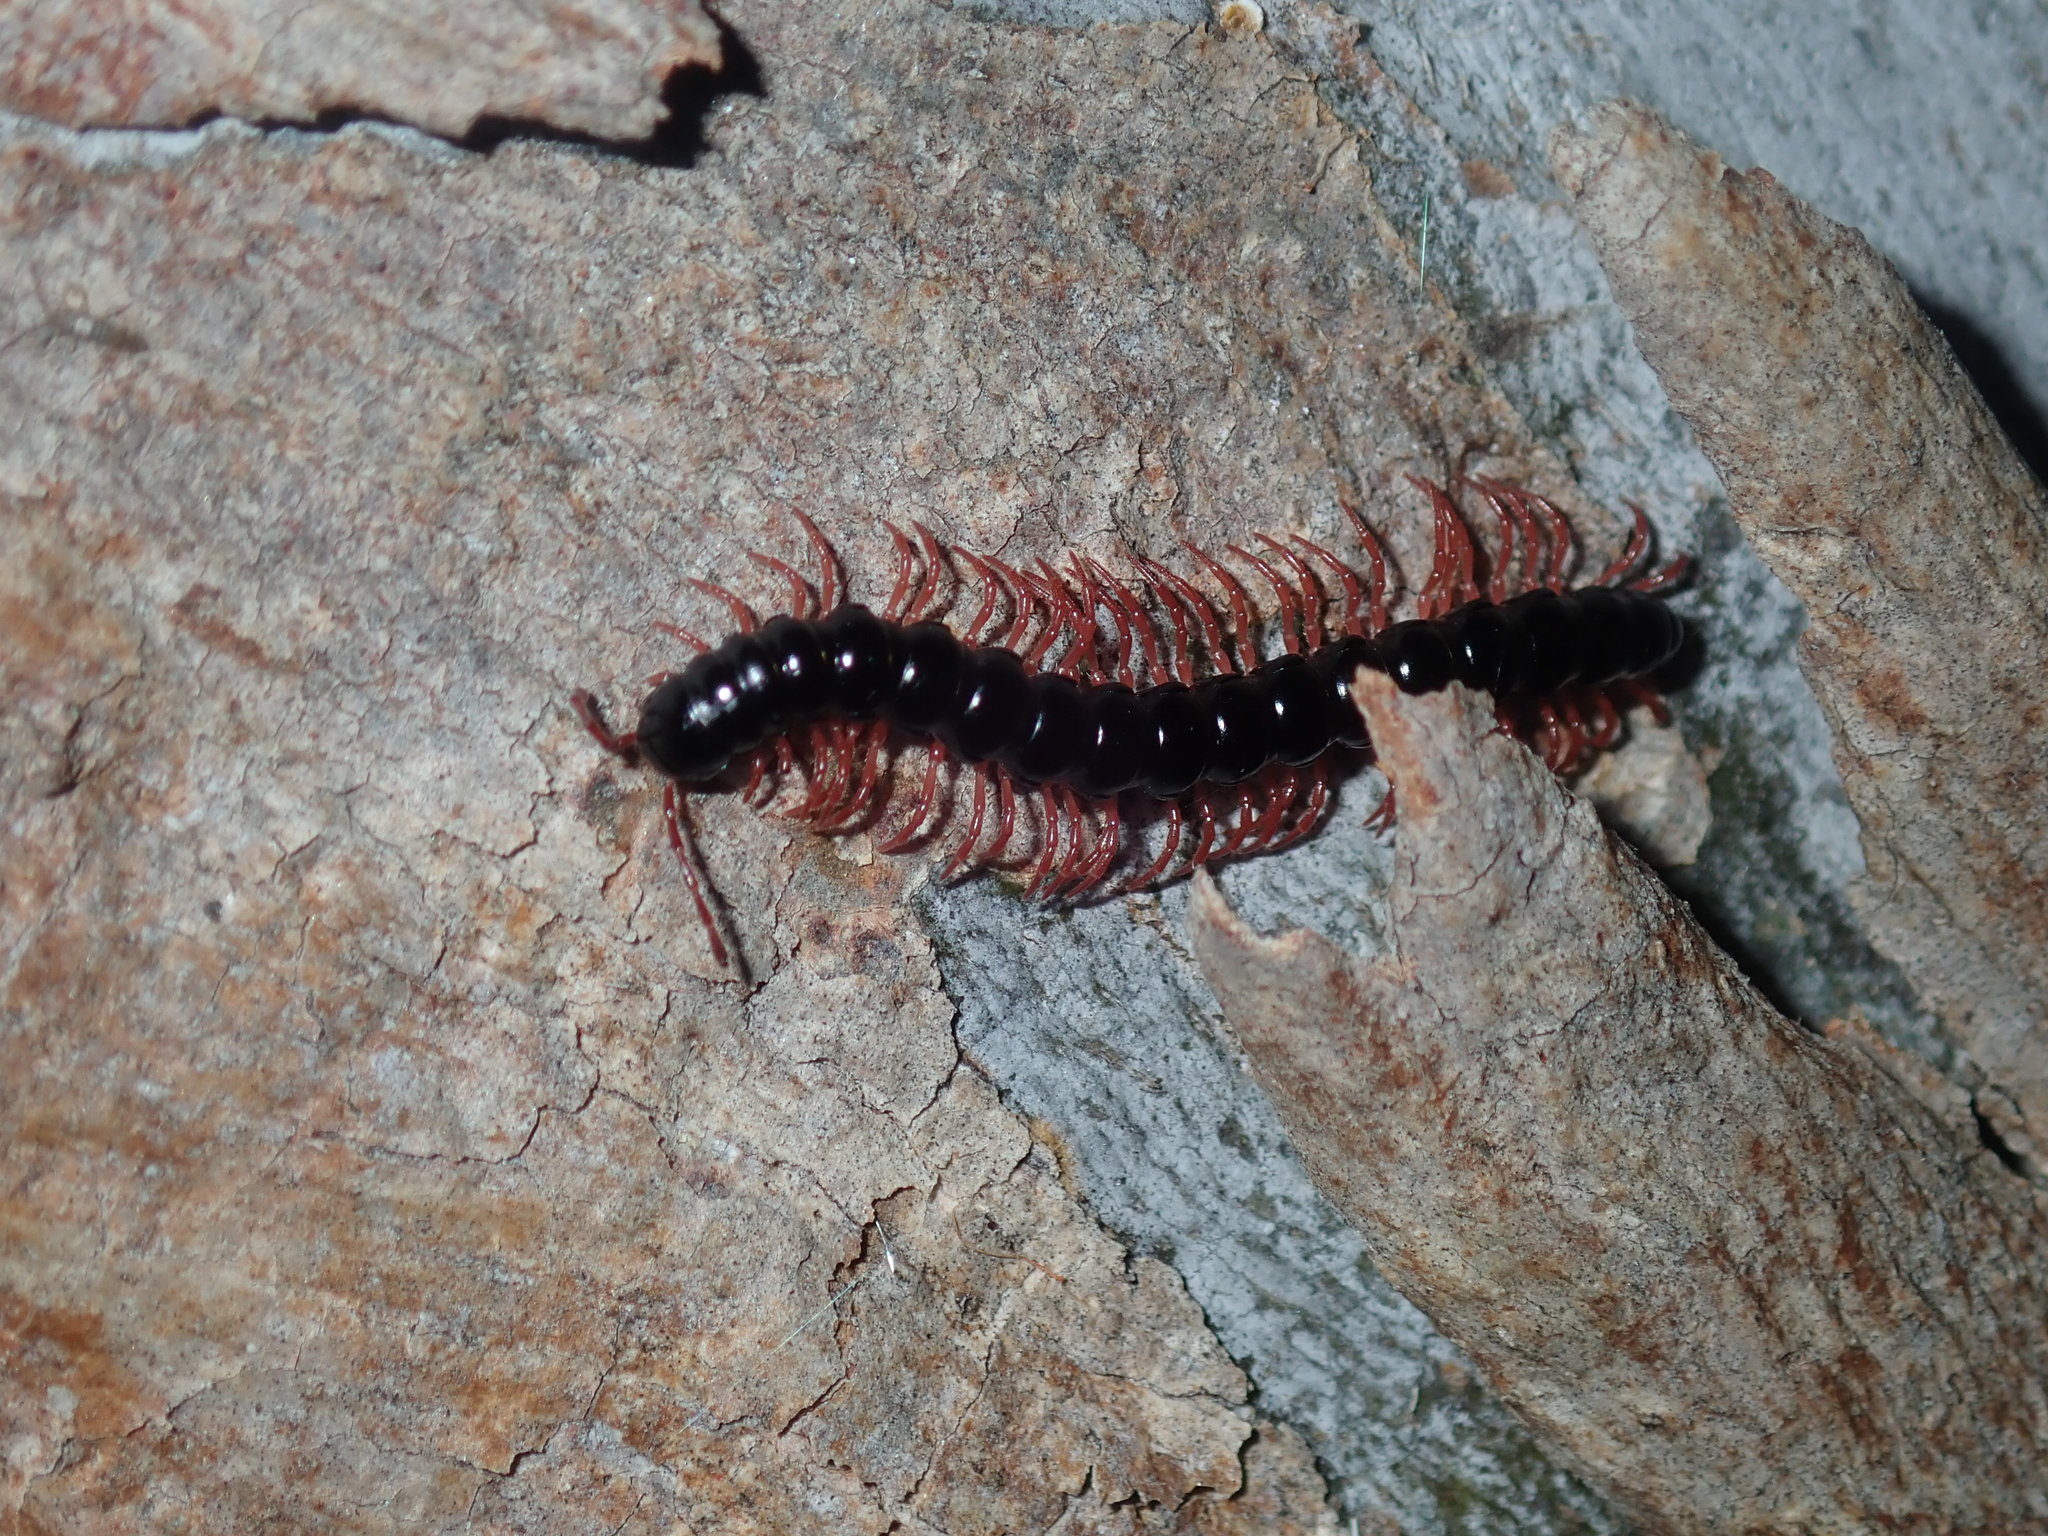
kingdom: Animalia
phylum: Arthropoda
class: Diplopoda
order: Polydesmida
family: Paradoxosomatidae
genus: Heterocladosoma
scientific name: Heterocladosoma
